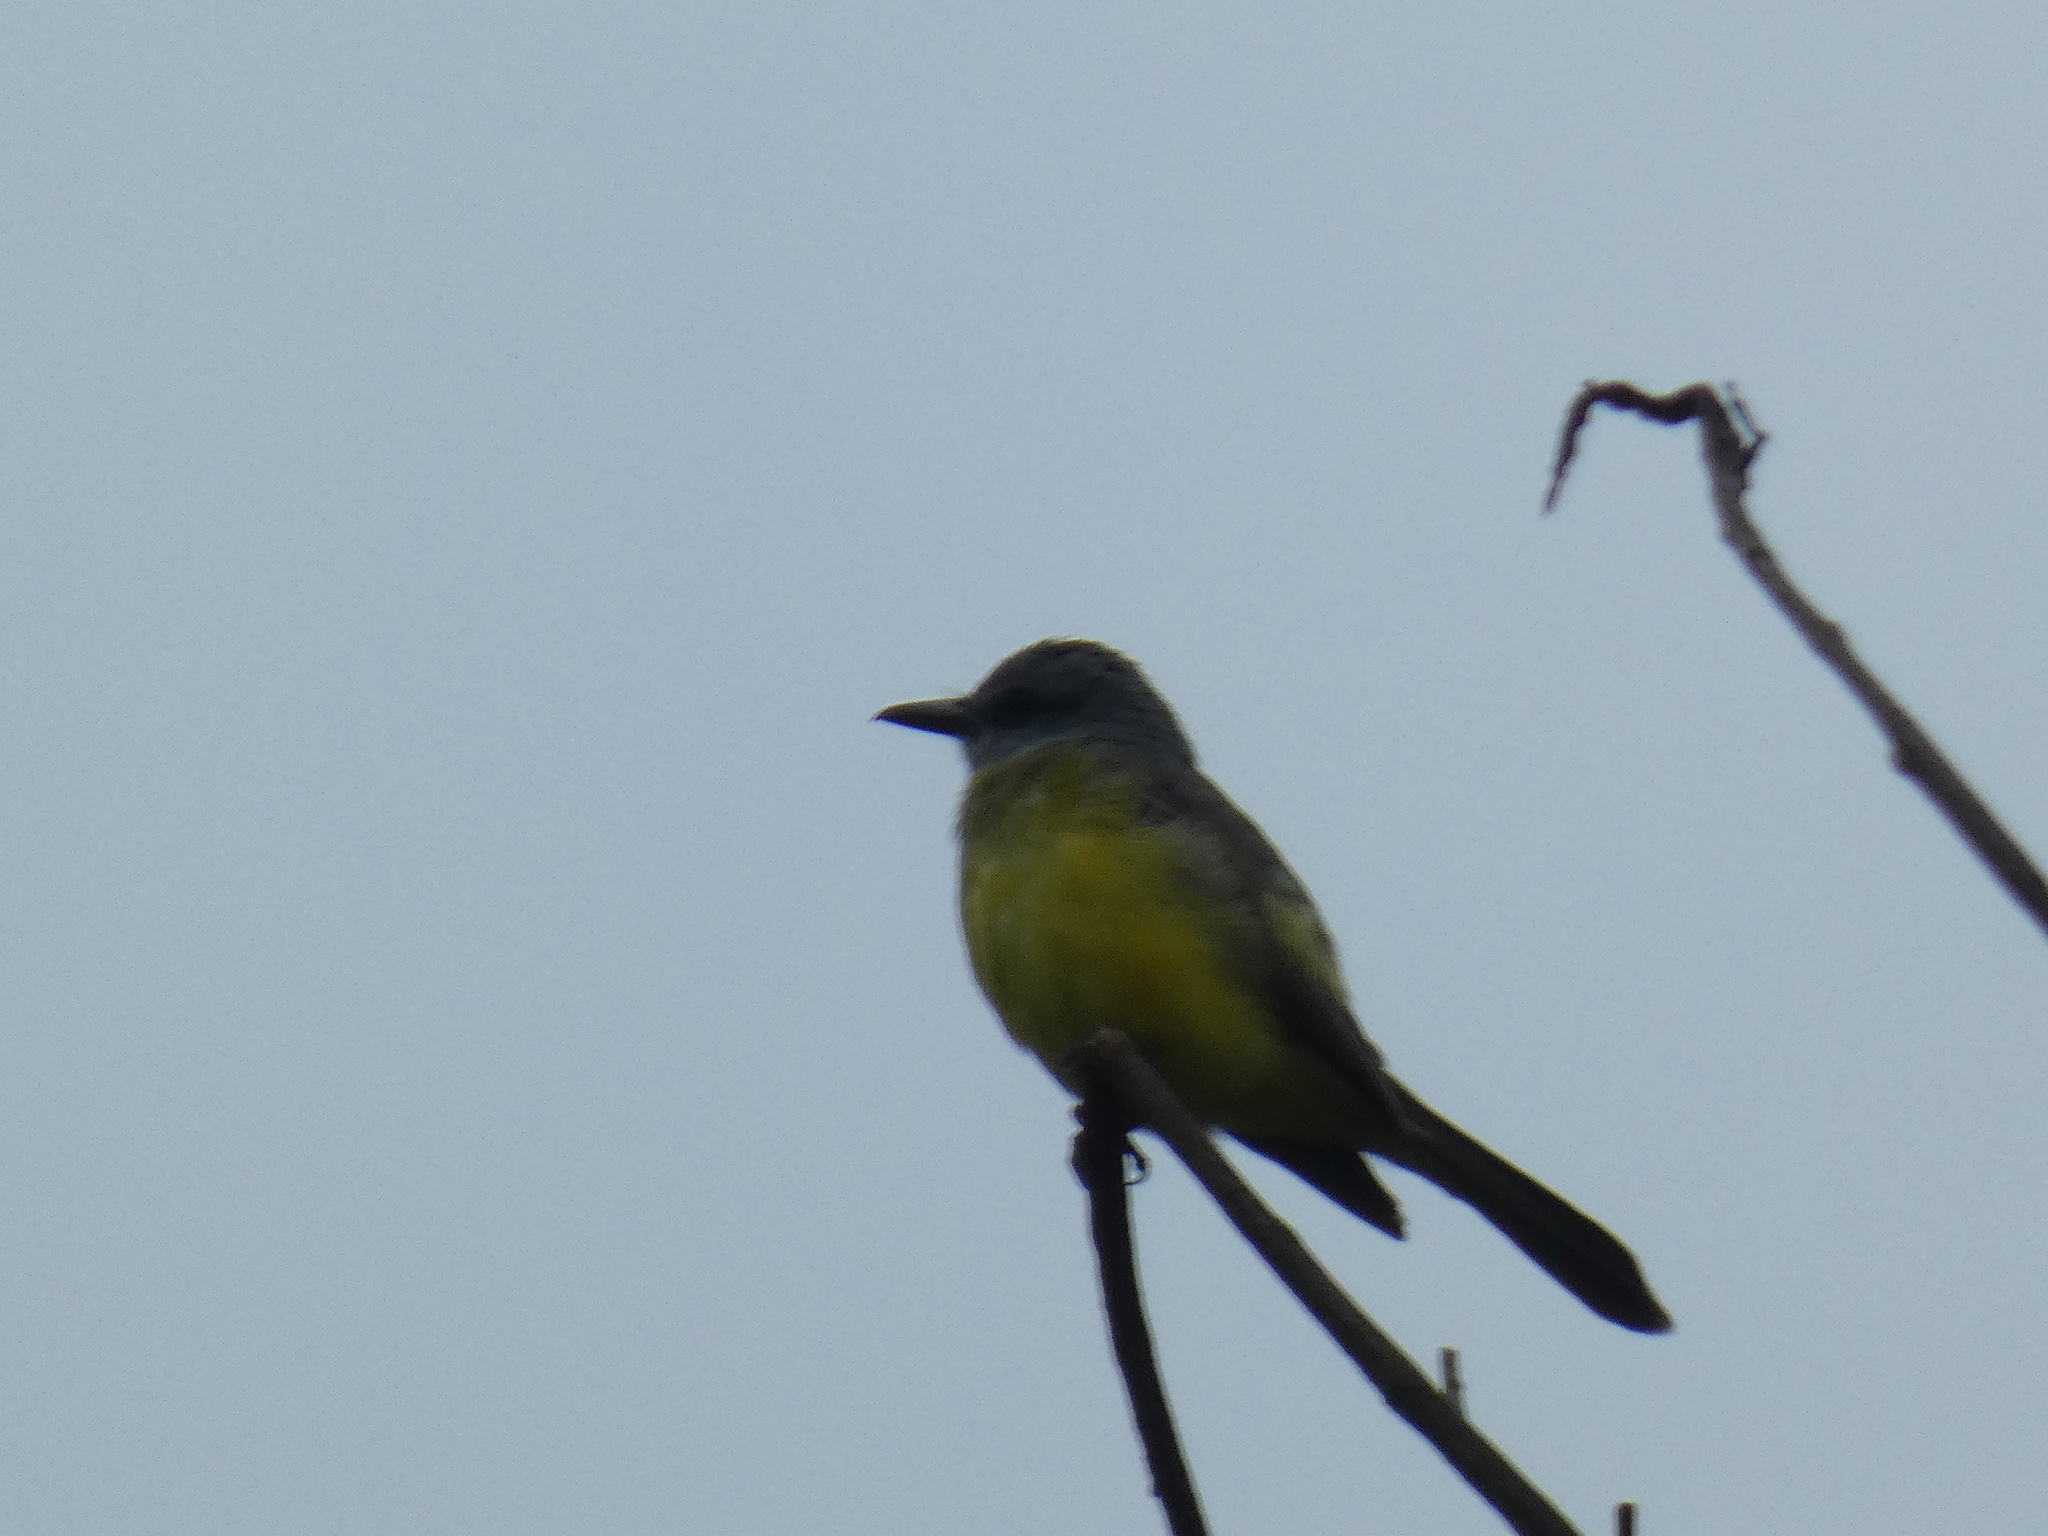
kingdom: Animalia
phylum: Chordata
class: Aves
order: Passeriformes
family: Tyrannidae
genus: Tyrannus
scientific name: Tyrannus melancholicus
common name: Tropical kingbird
